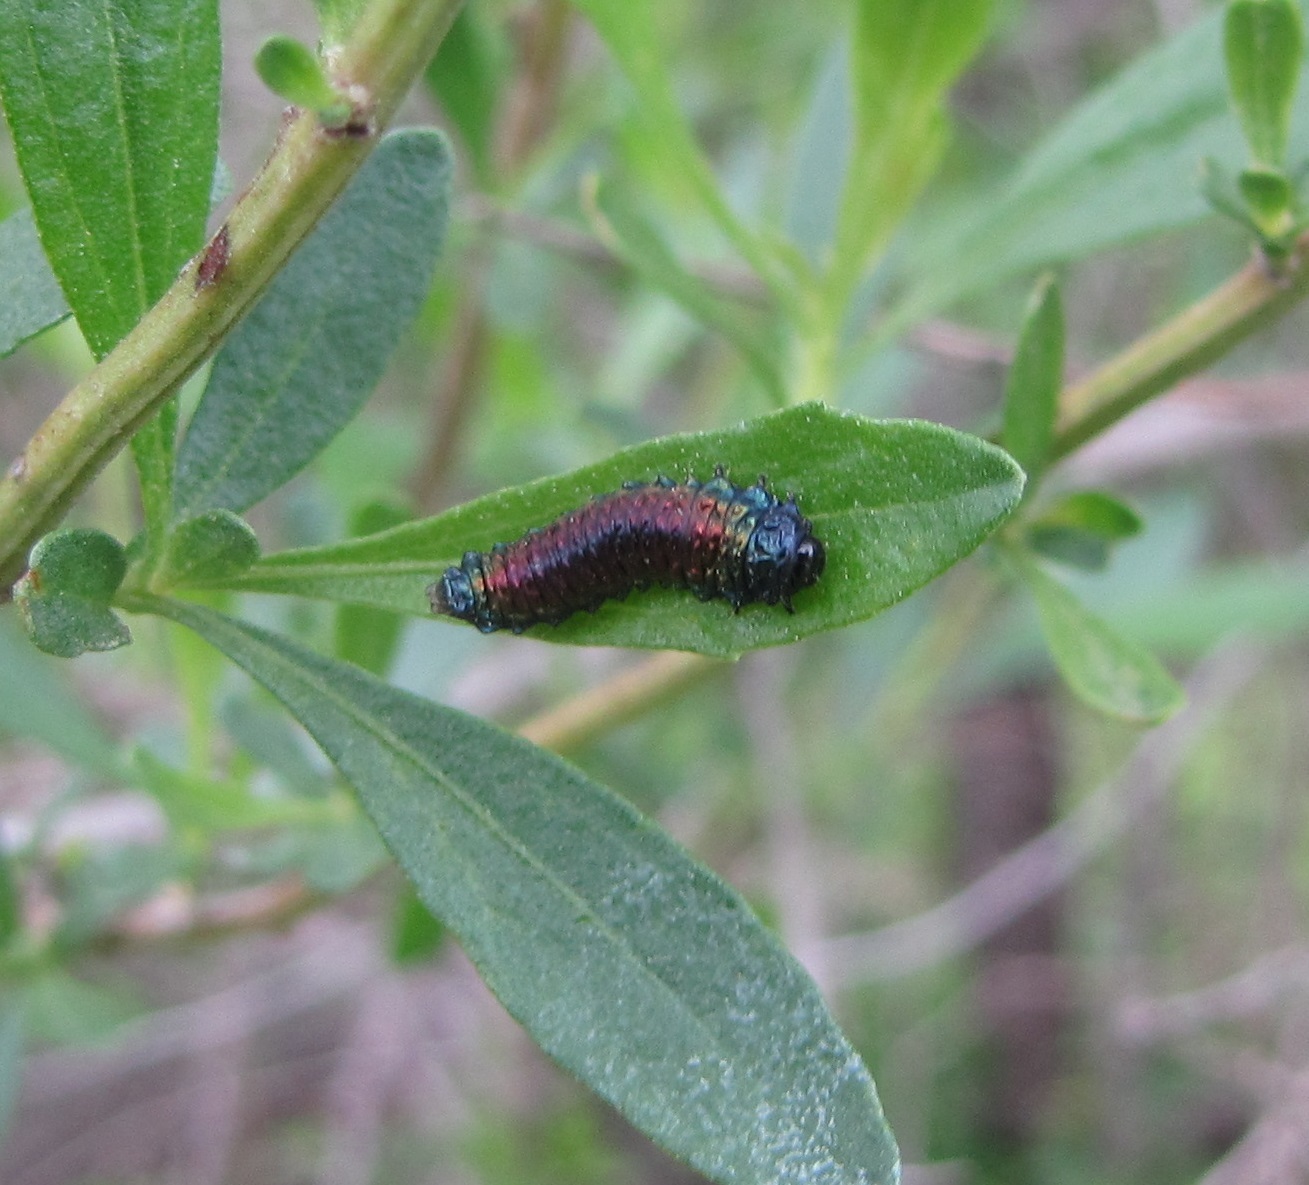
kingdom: Animalia
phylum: Arthropoda
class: Insecta
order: Coleoptera
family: Chrysomelidae
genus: Trirhabda
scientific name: Trirhabda bacharidis
